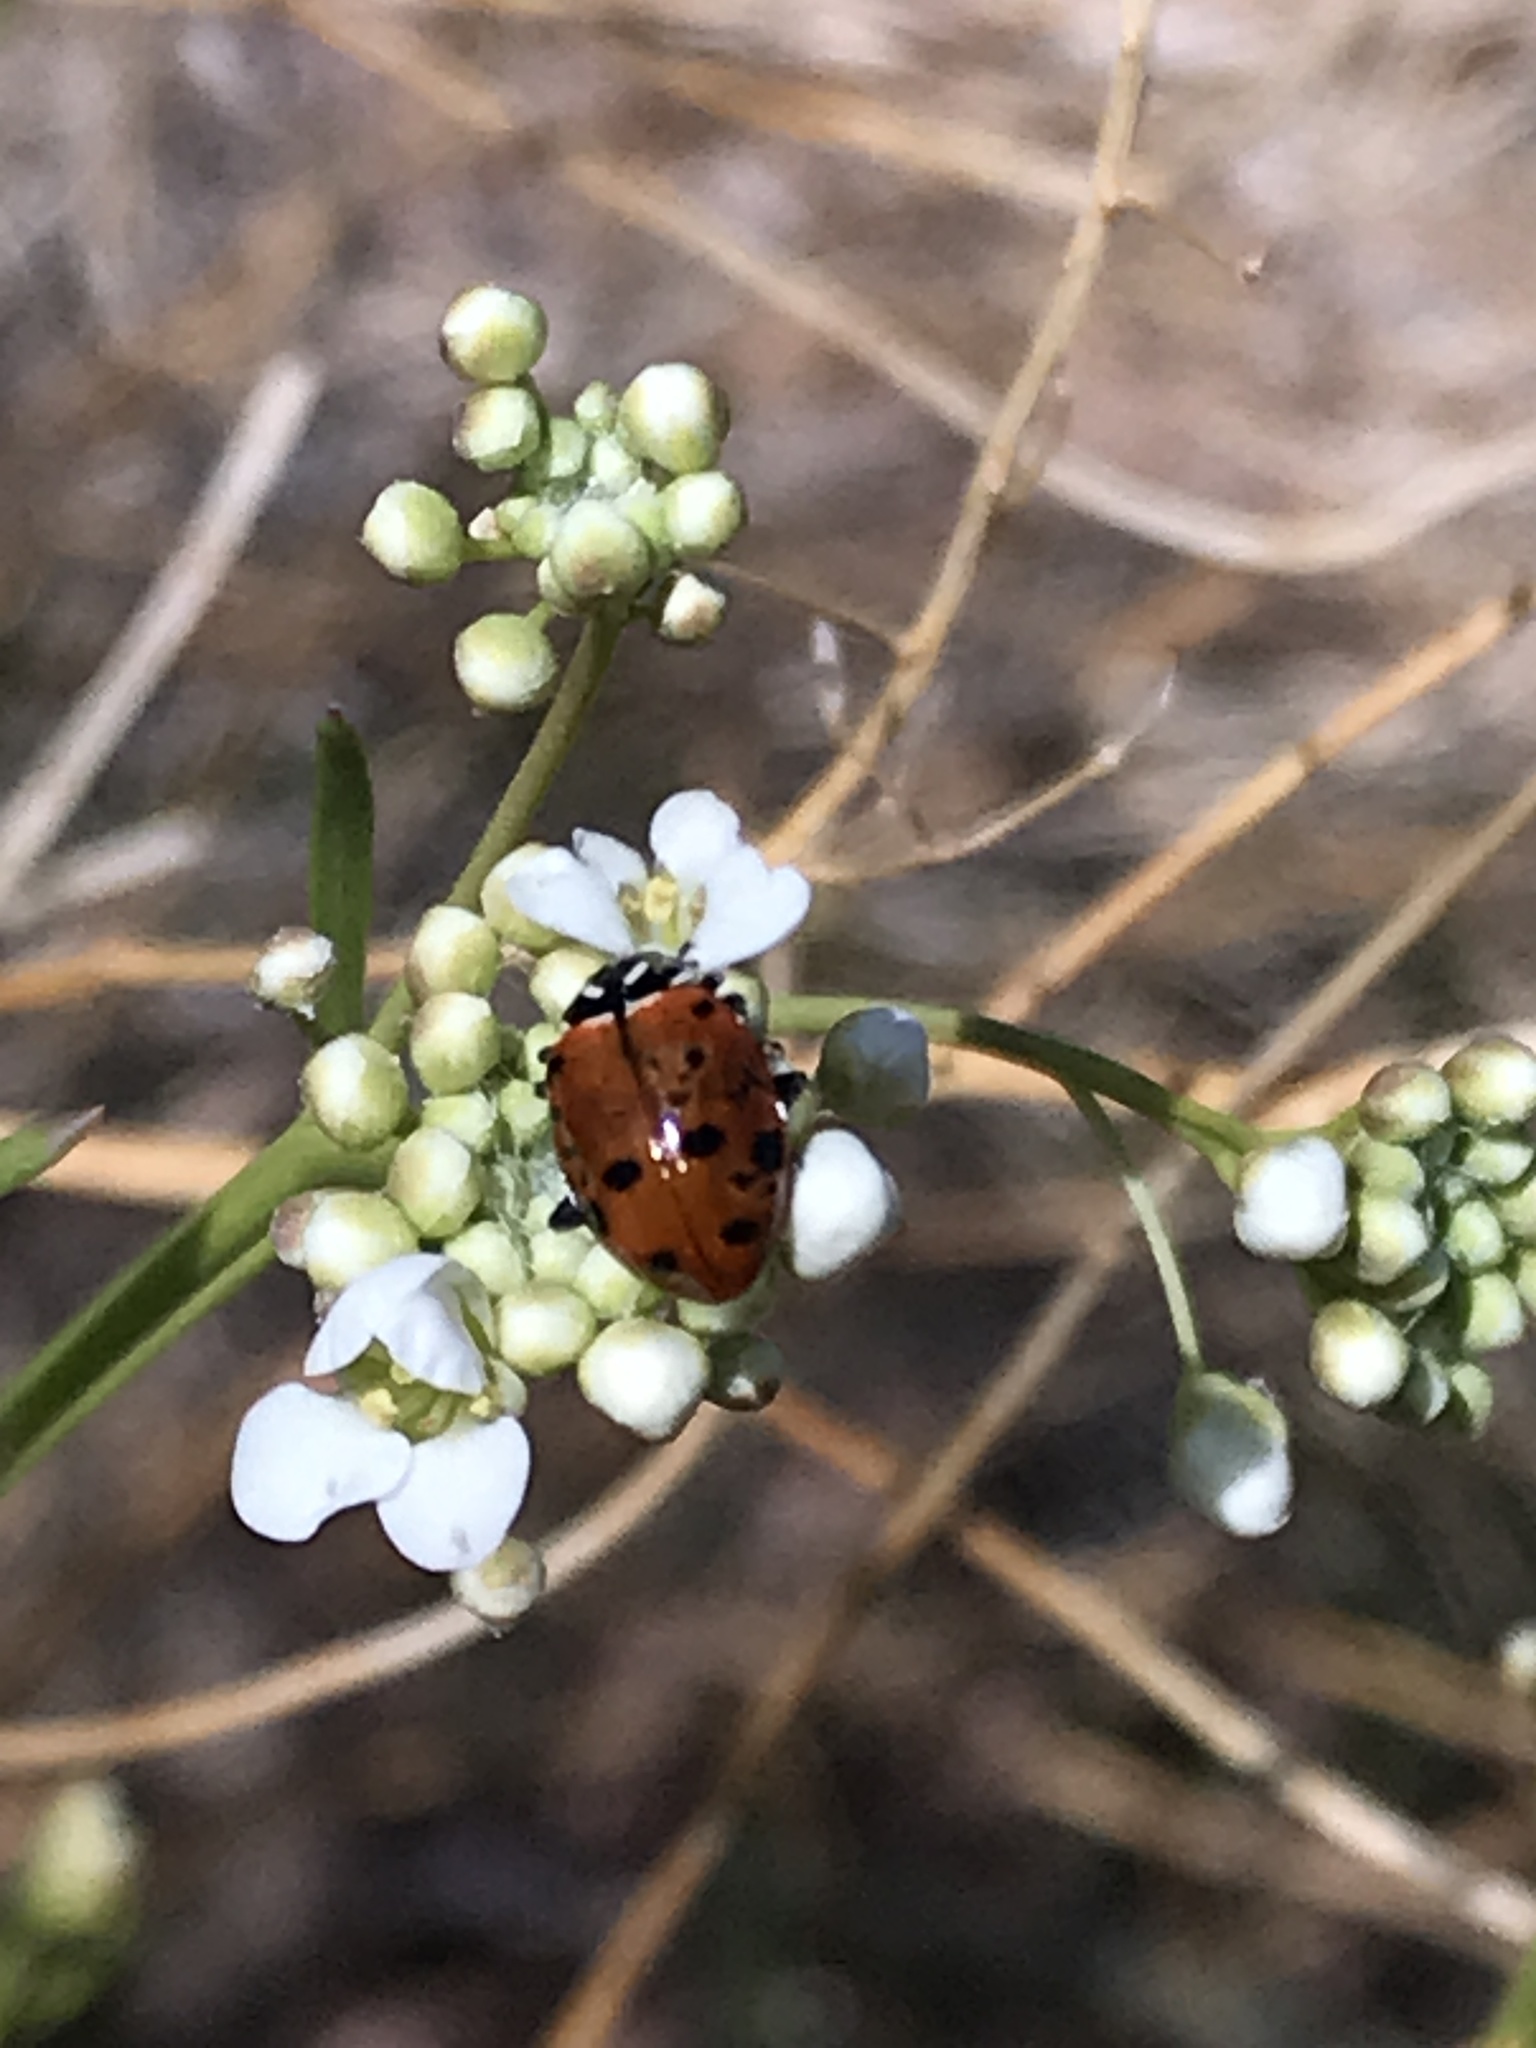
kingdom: Animalia
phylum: Arthropoda
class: Insecta
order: Coleoptera
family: Coccinellidae
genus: Hippodamia
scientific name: Hippodamia convergens
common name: Convergent lady beetle
